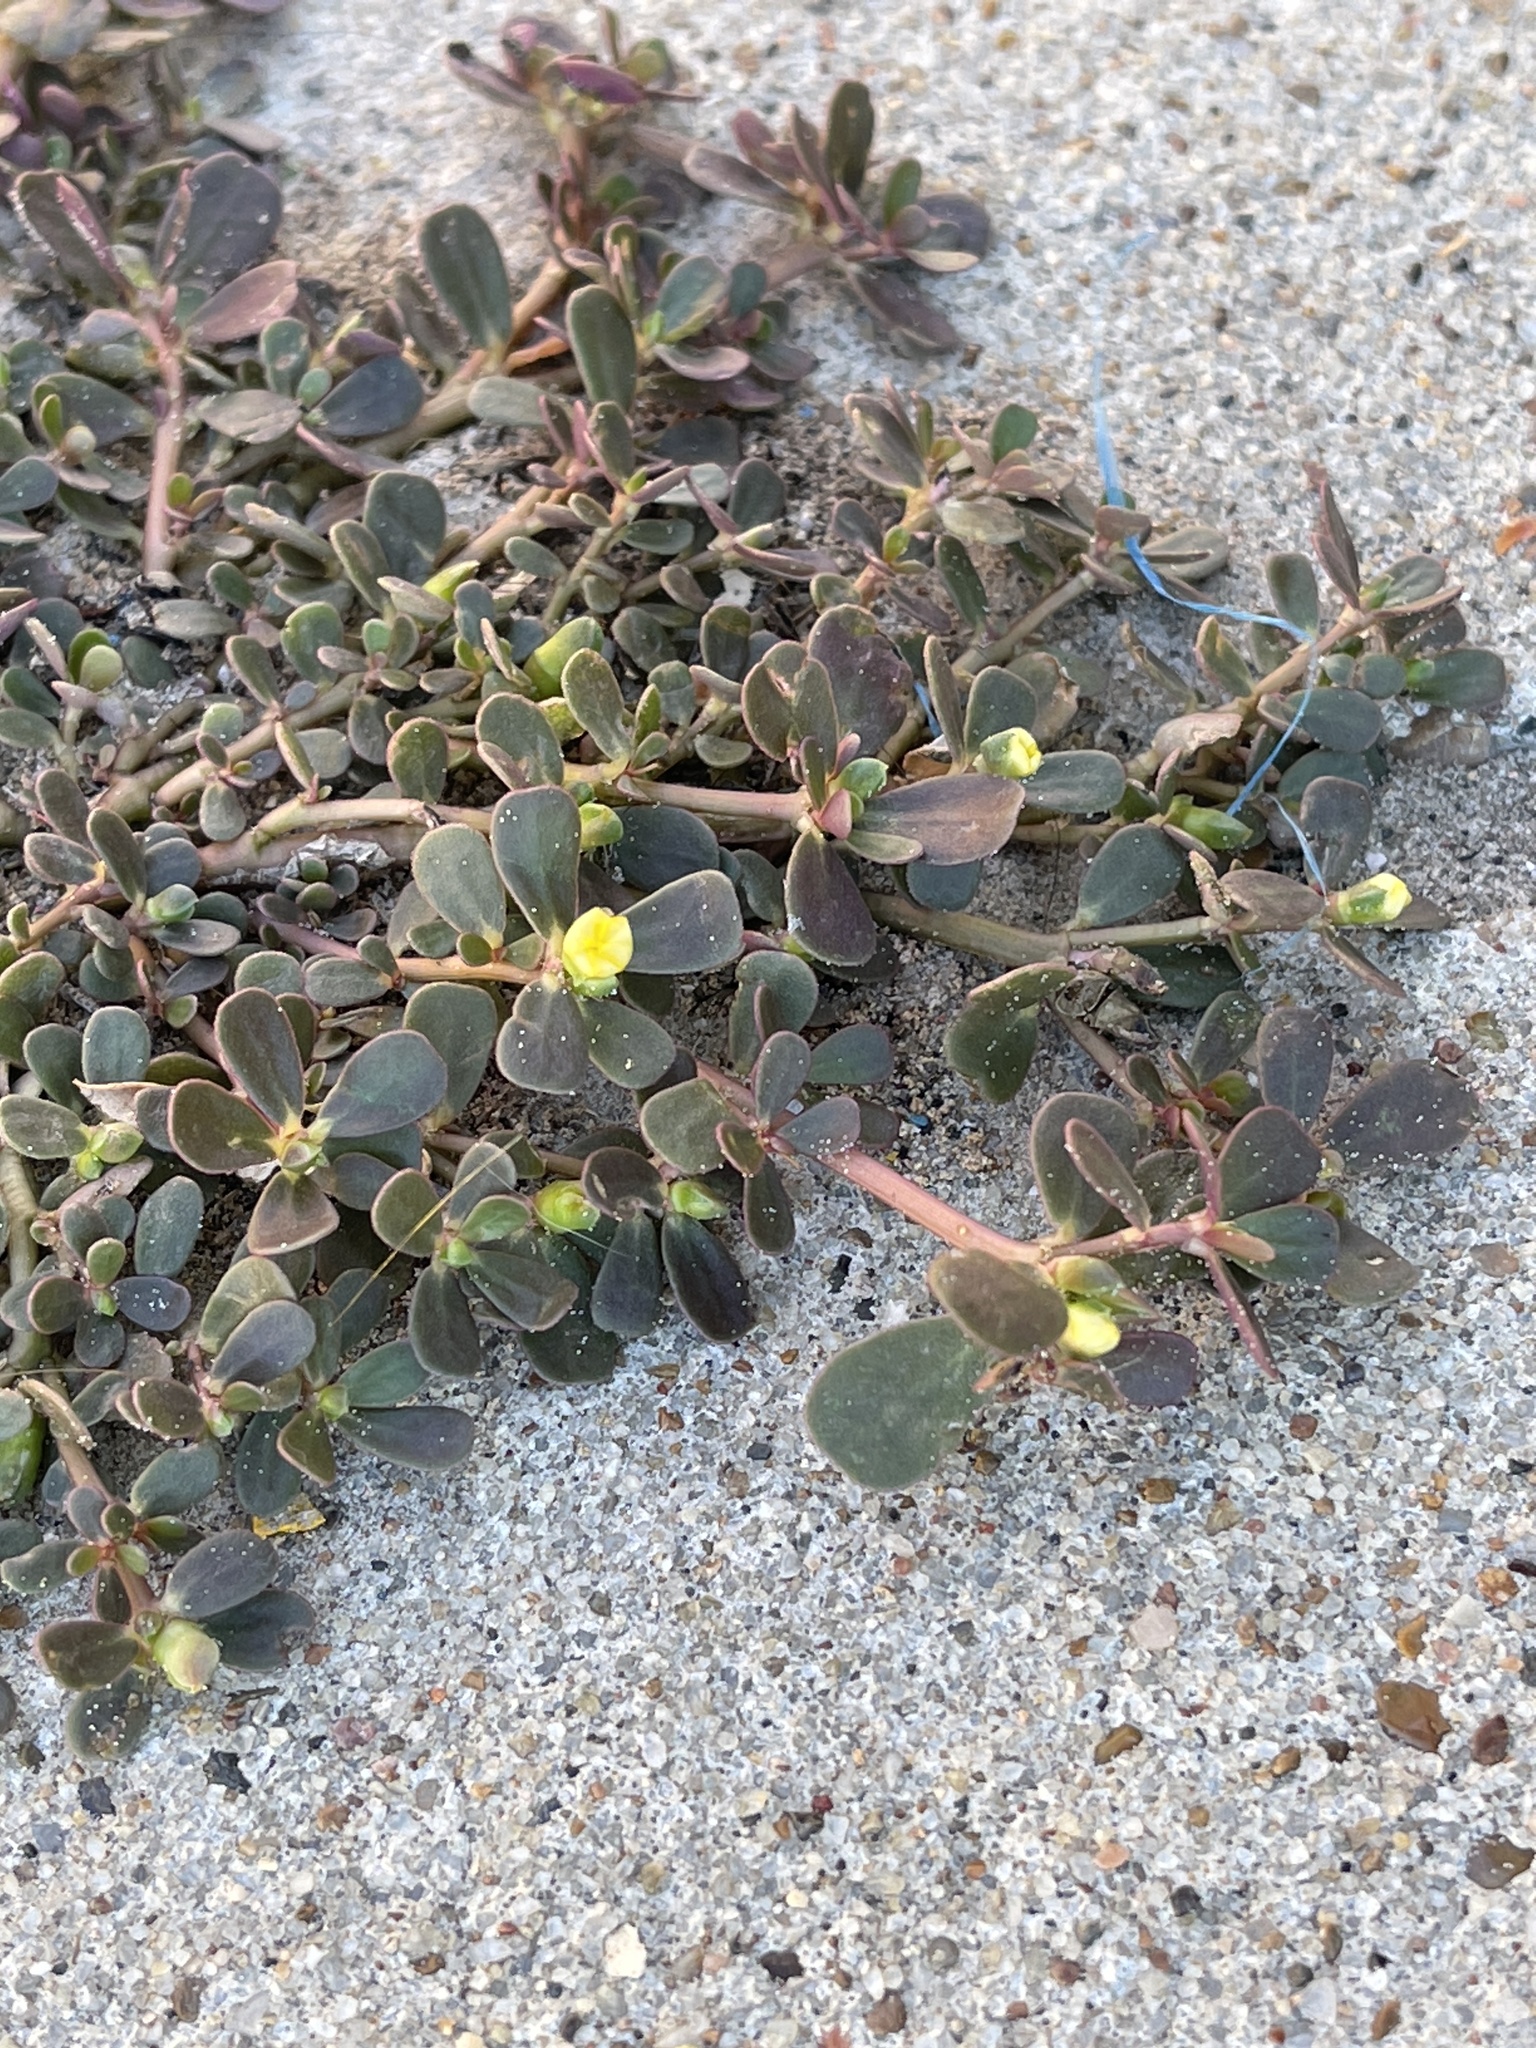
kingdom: Plantae
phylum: Tracheophyta
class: Magnoliopsida
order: Caryophyllales
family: Portulacaceae
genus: Portulaca
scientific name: Portulaca oleracea
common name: Common purslane
